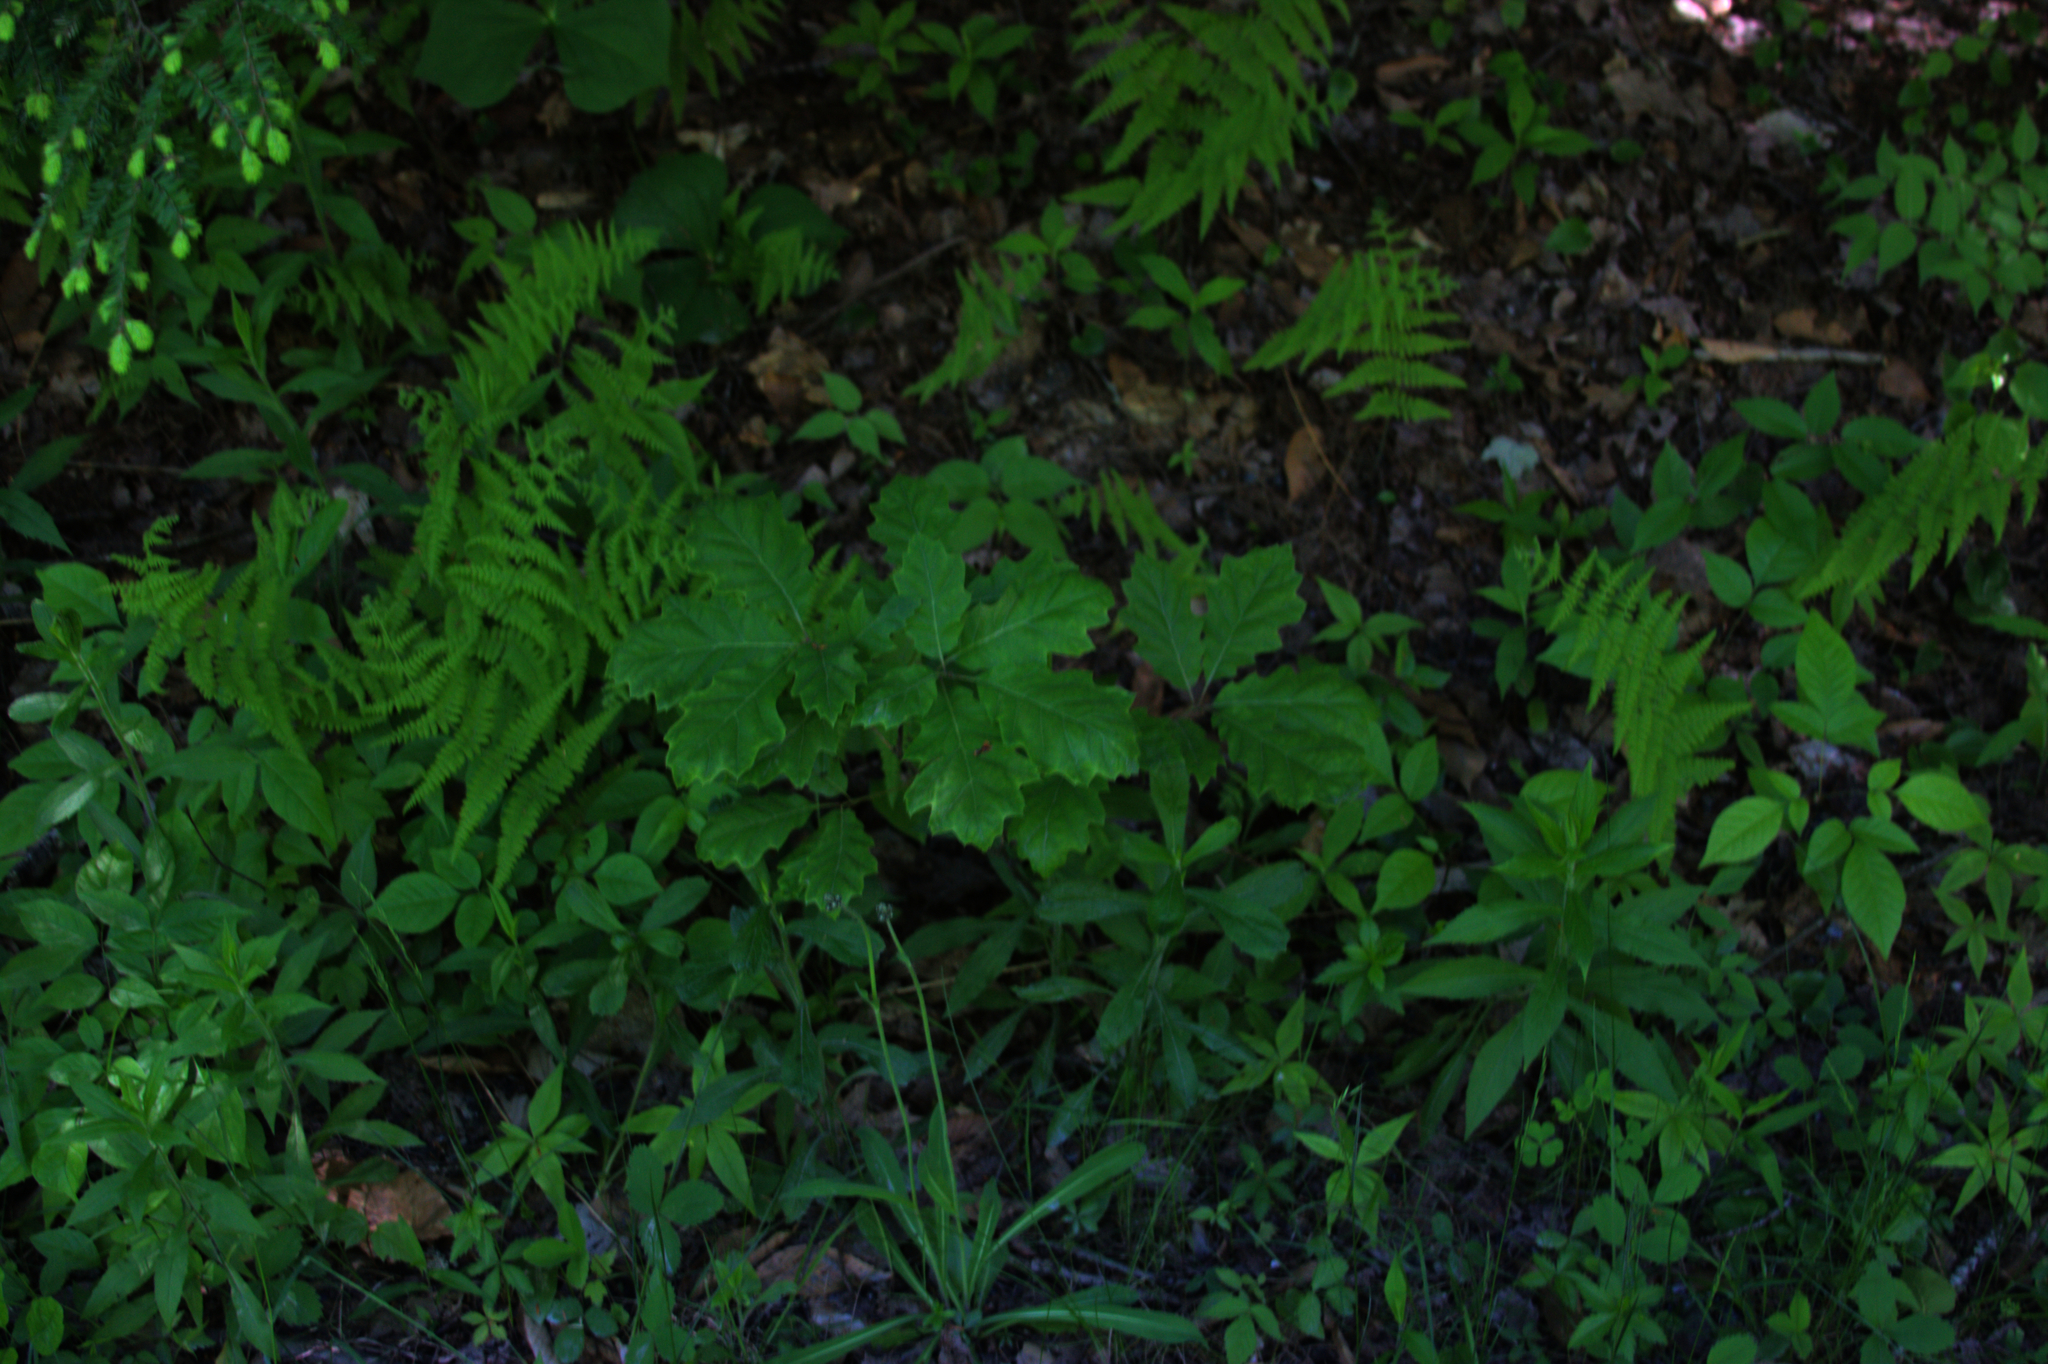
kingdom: Plantae
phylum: Tracheophyta
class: Magnoliopsida
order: Fagales
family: Fagaceae
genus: Quercus
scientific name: Quercus rubra
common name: Red oak
